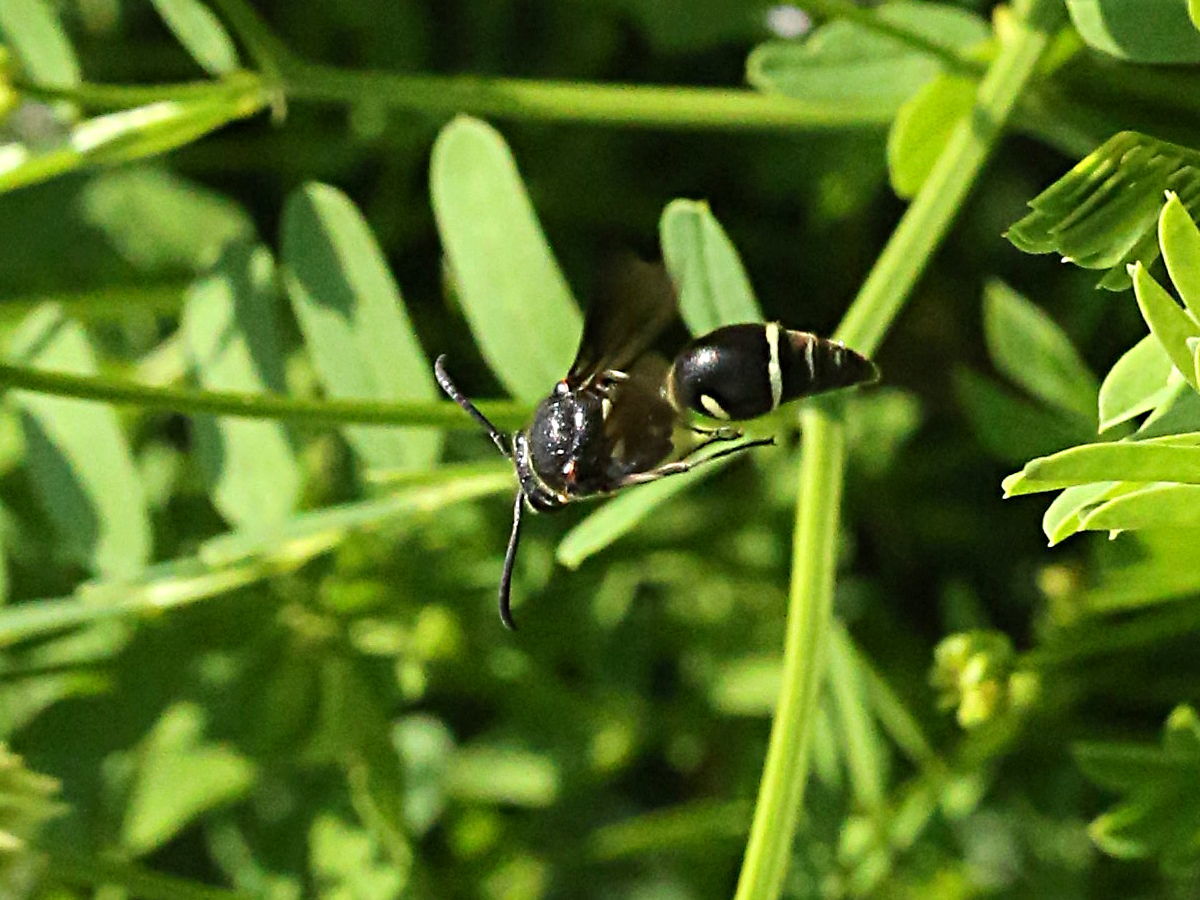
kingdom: Animalia
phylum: Arthropoda
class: Insecta
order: Hymenoptera
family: Vespidae
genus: Eumenes
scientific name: Eumenes fraternus
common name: Fraternal potter wasp
